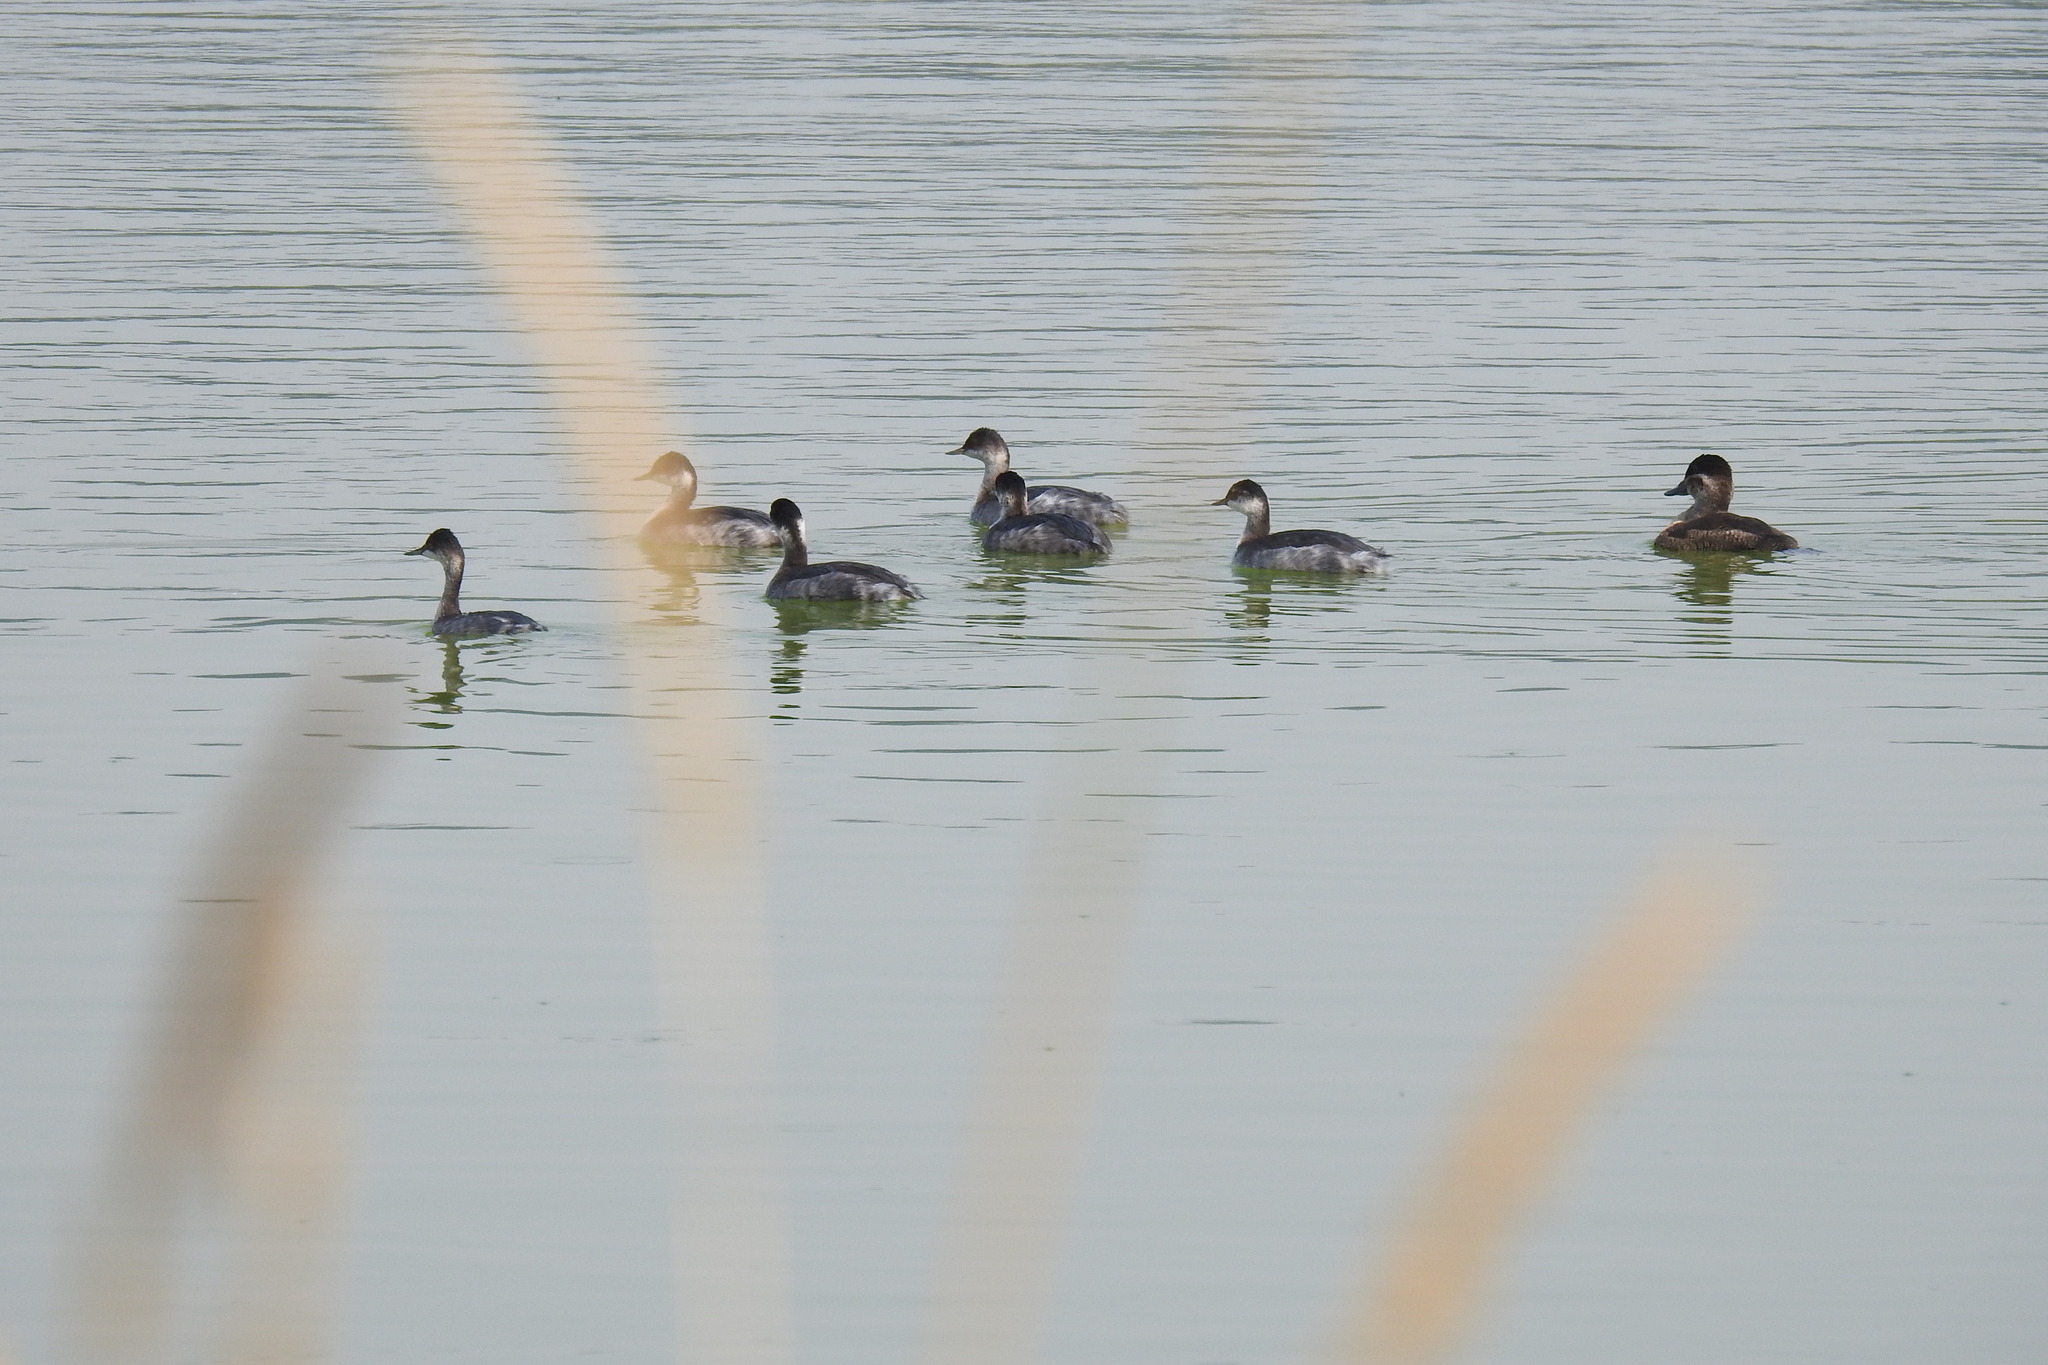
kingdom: Animalia
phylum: Chordata
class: Aves
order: Podicipediformes
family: Podicipedidae
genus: Podiceps
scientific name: Podiceps nigricollis
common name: Black-necked grebe
